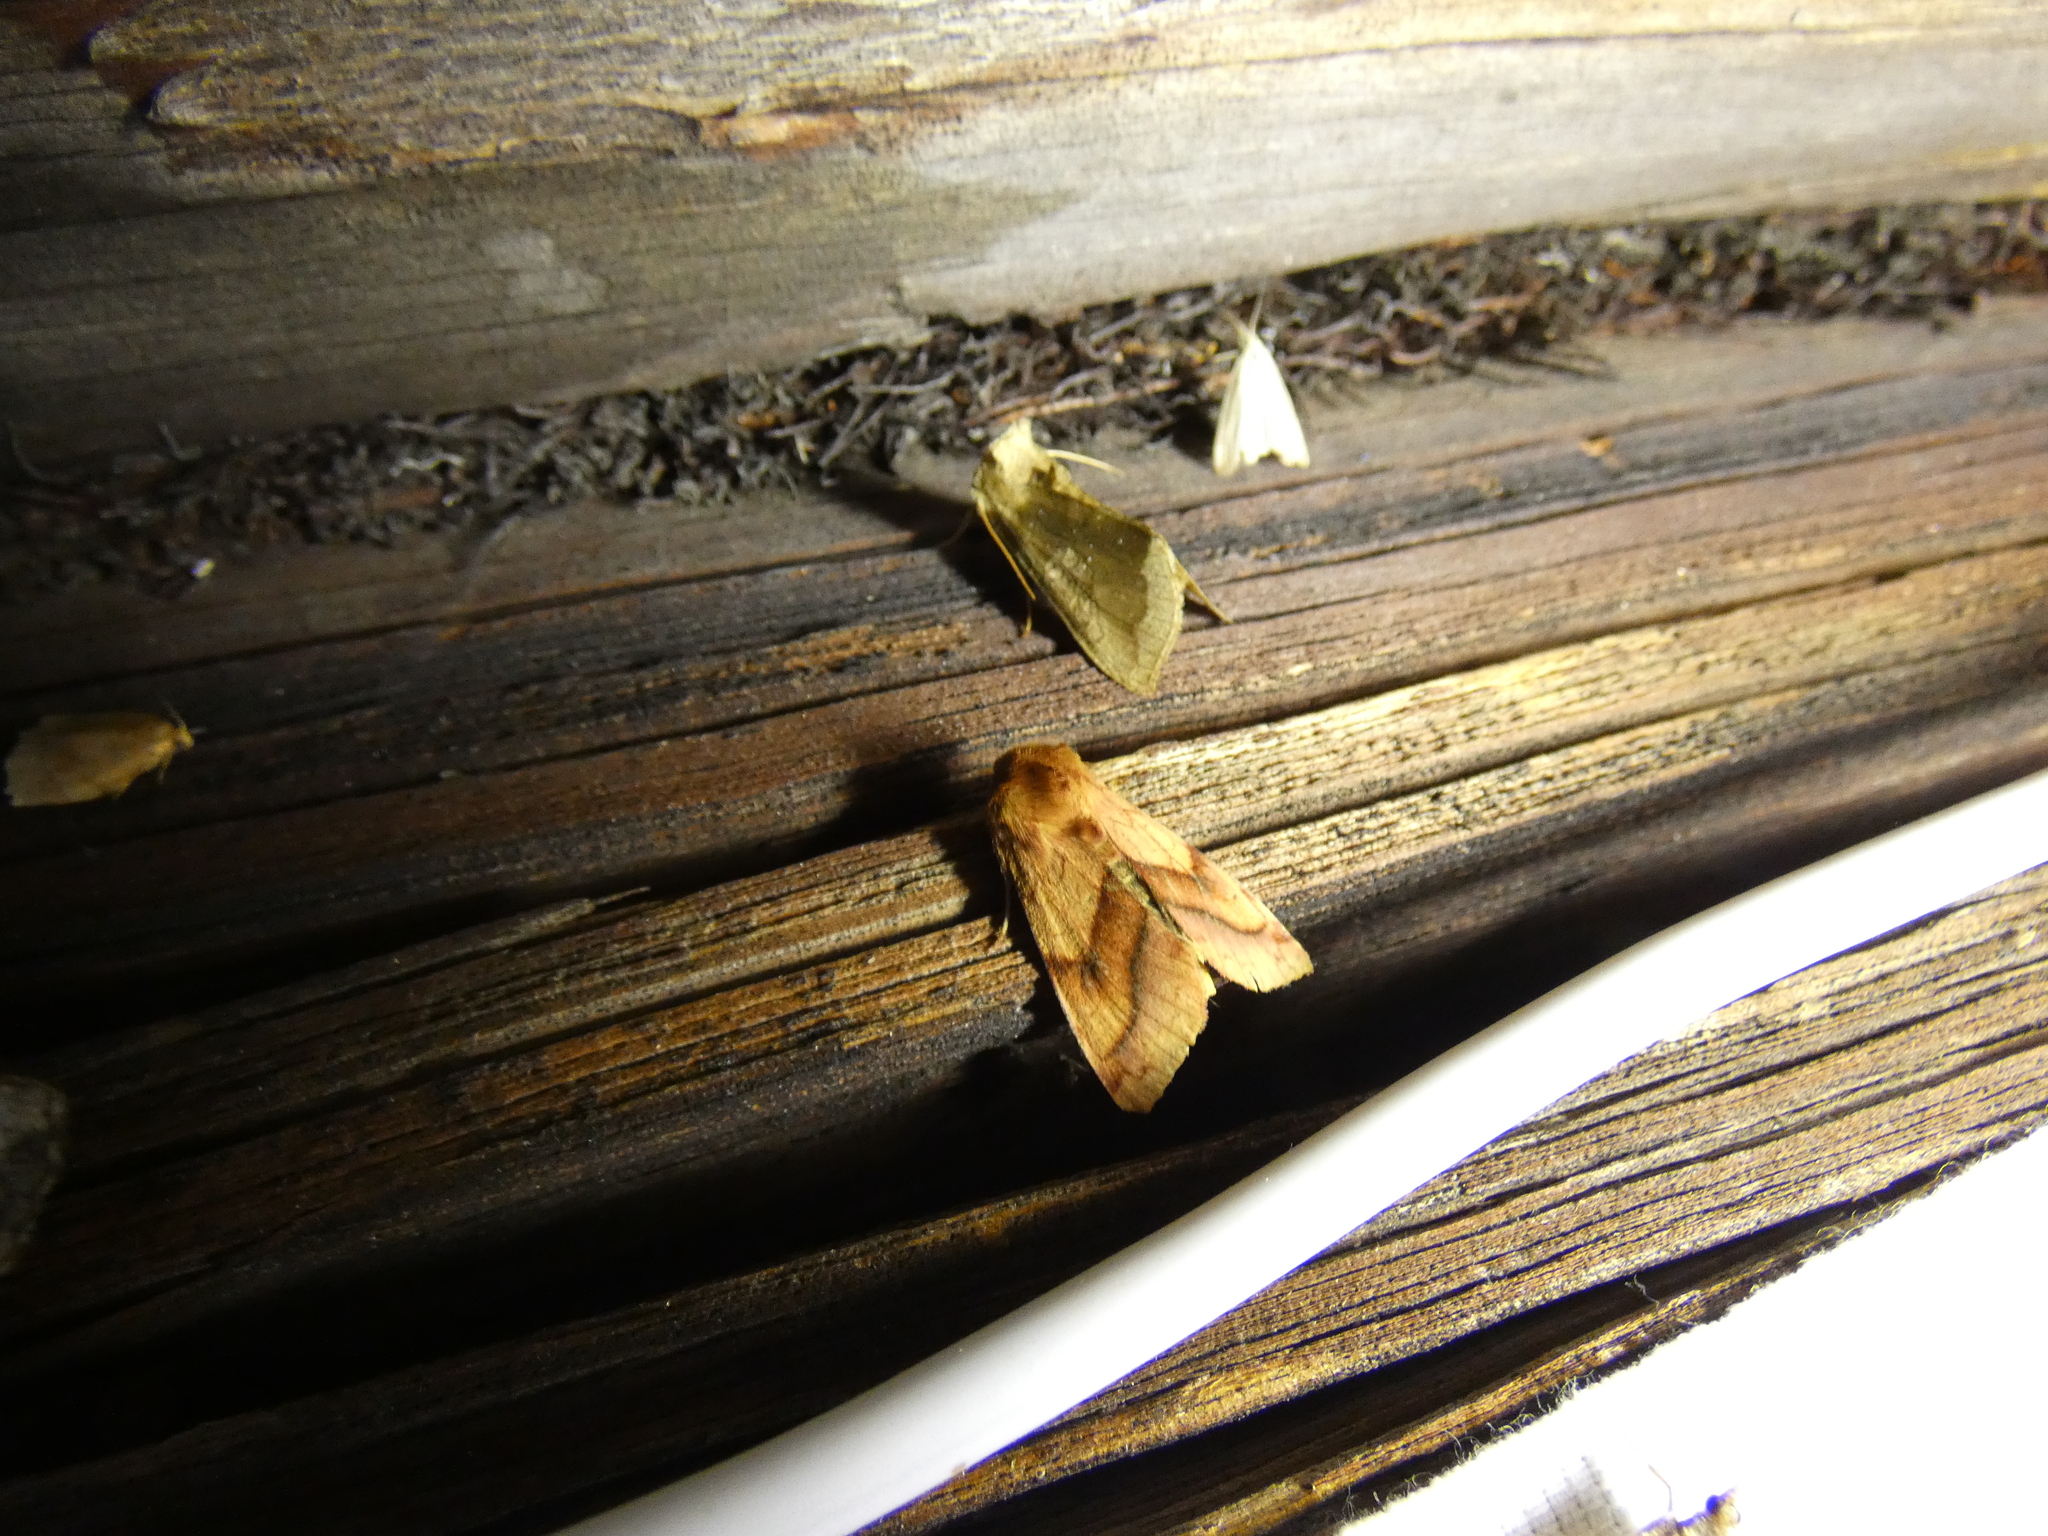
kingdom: Animalia
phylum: Arthropoda
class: Insecta
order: Lepidoptera
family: Noctuidae
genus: Pyrrhia
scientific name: Pyrrhia exprimens
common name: Purple-lined sallow
